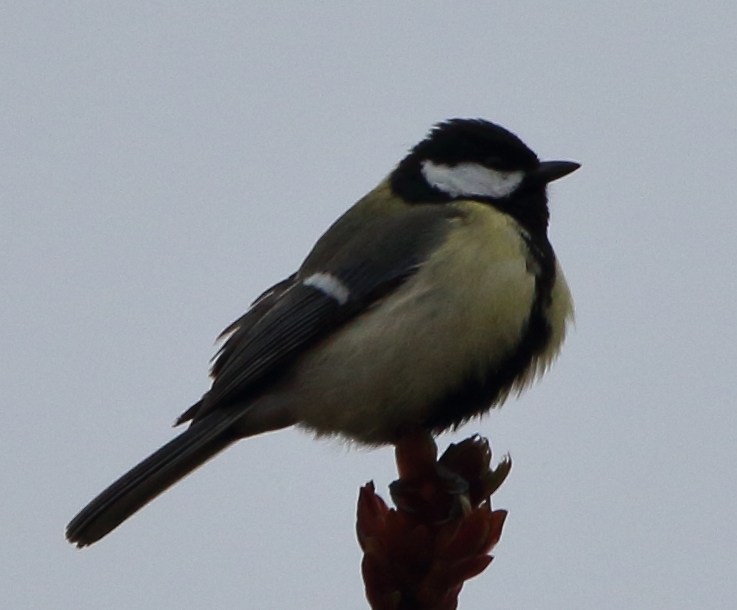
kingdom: Animalia
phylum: Chordata
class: Aves
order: Passeriformes
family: Paridae
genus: Parus
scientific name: Parus major
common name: Great tit
